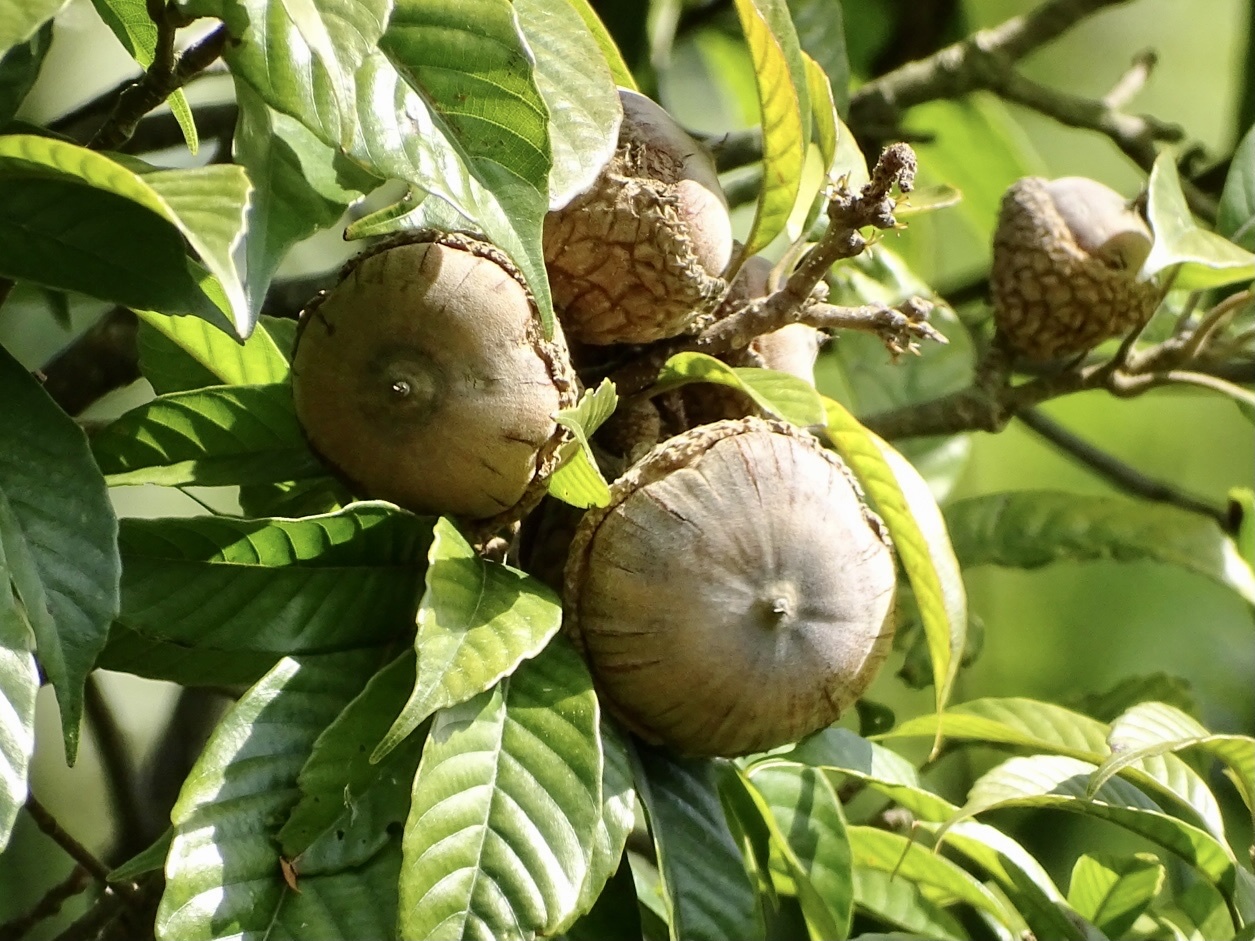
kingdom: Plantae
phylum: Tracheophyta
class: Magnoliopsida
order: Fagales
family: Fagaceae
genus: Lithocarpus
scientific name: Lithocarpus corneus
